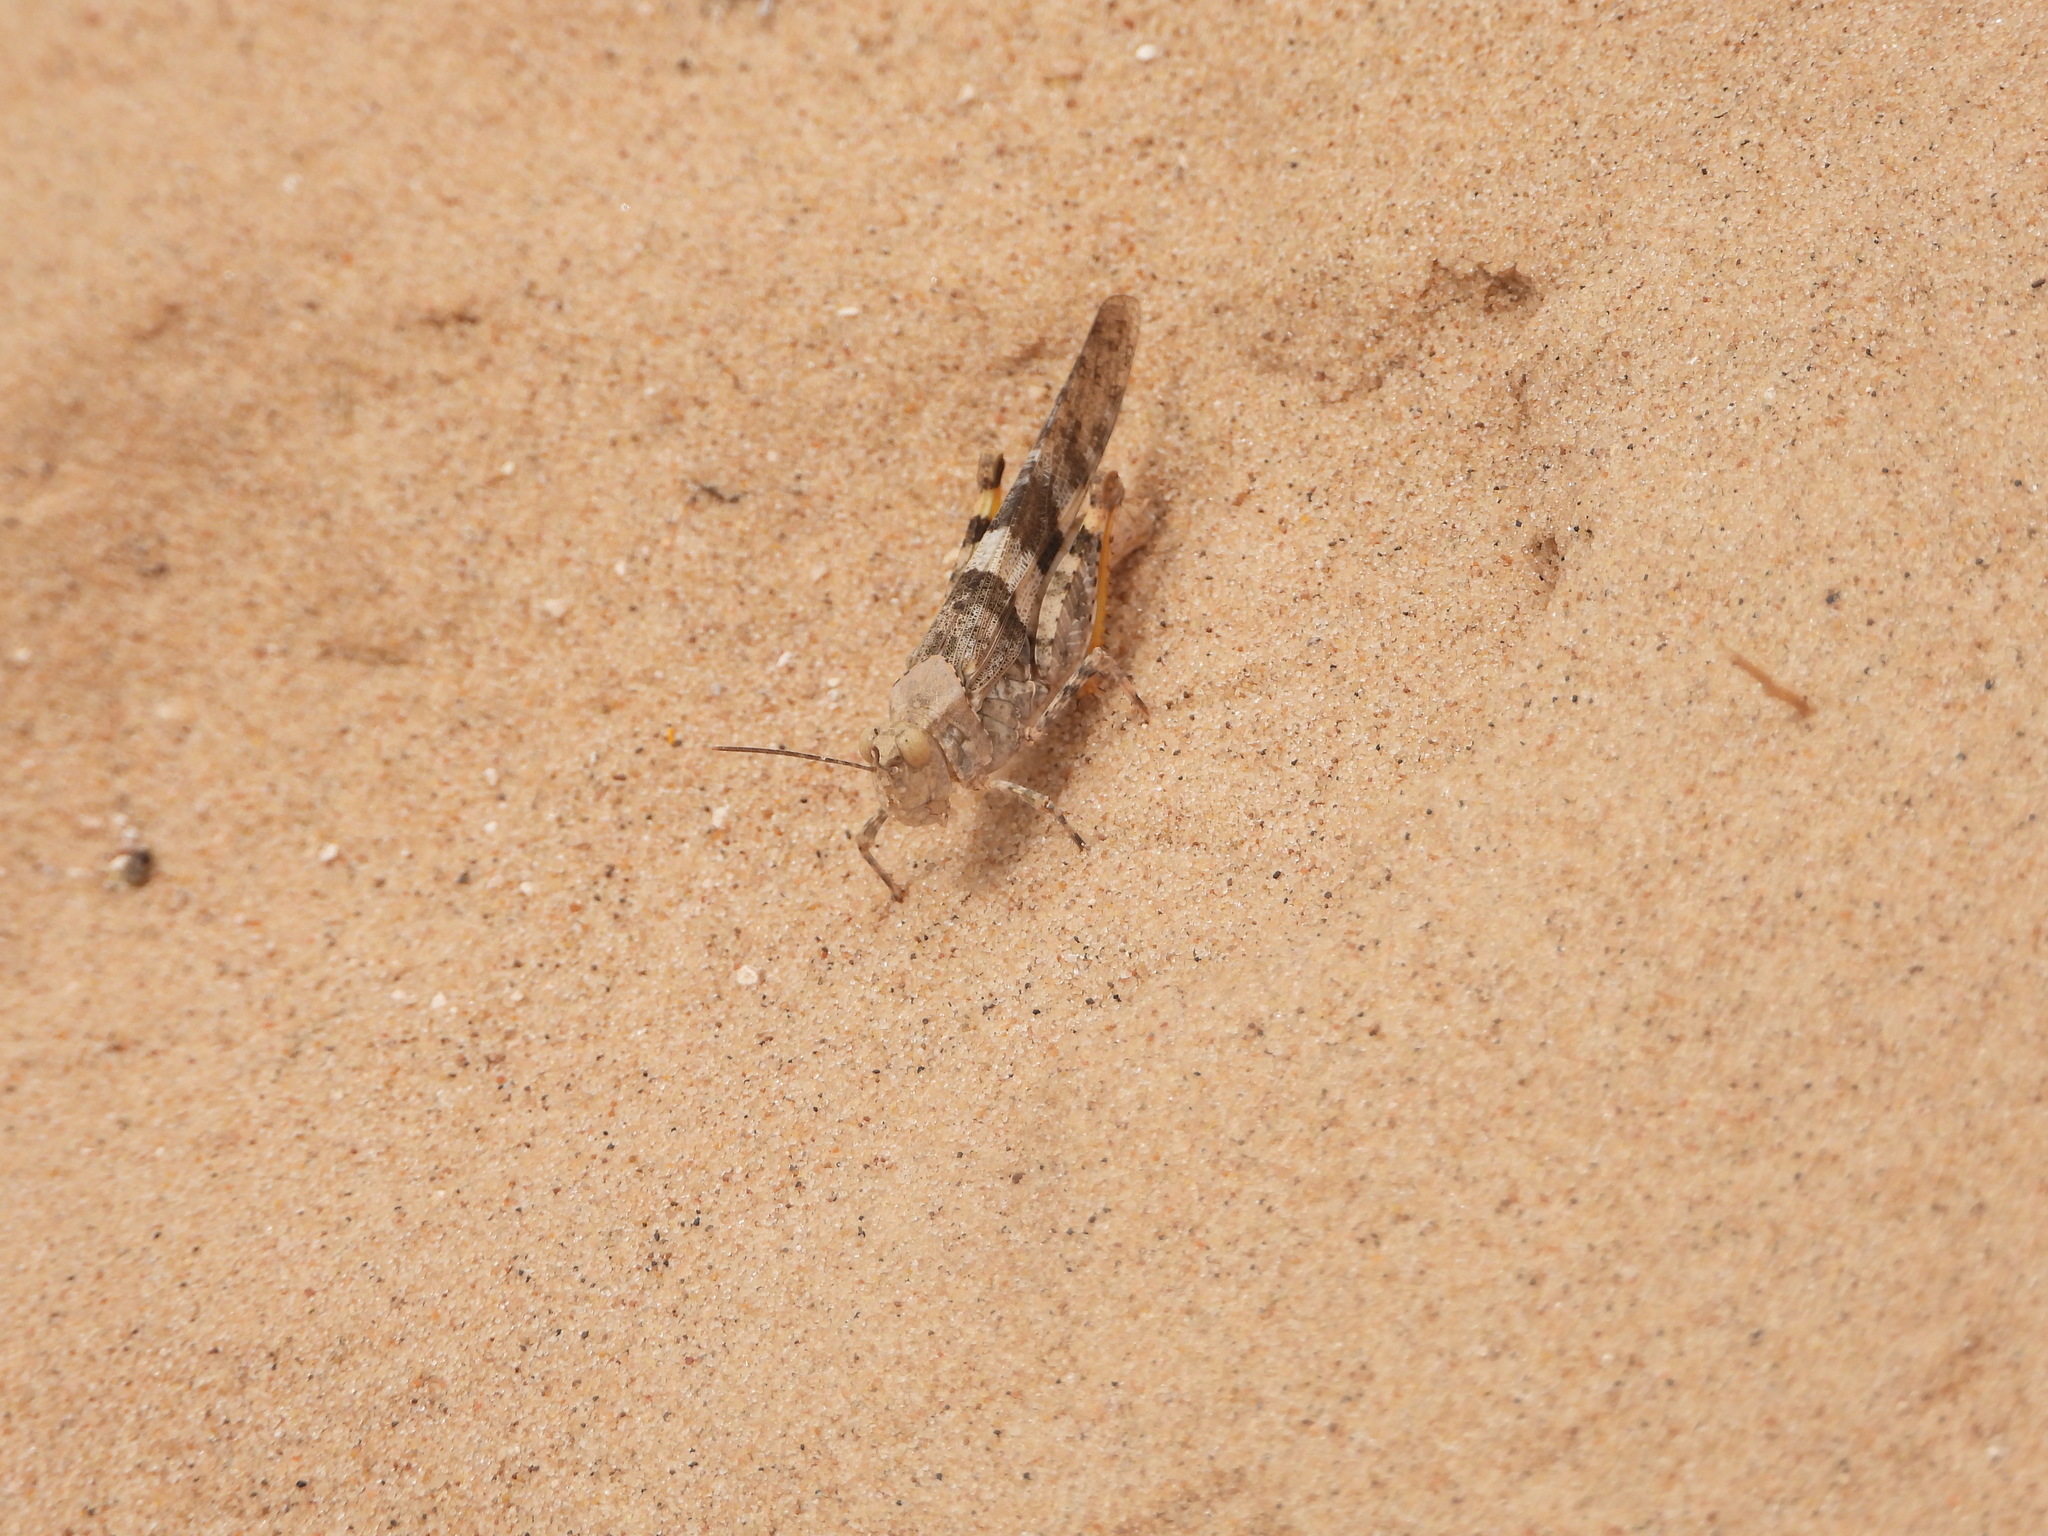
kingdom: Animalia
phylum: Arthropoda
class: Insecta
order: Orthoptera
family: Acrididae
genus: Trimerotropis
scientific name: Trimerotropis pallidipennis
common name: Pallid-winged grasshopper
